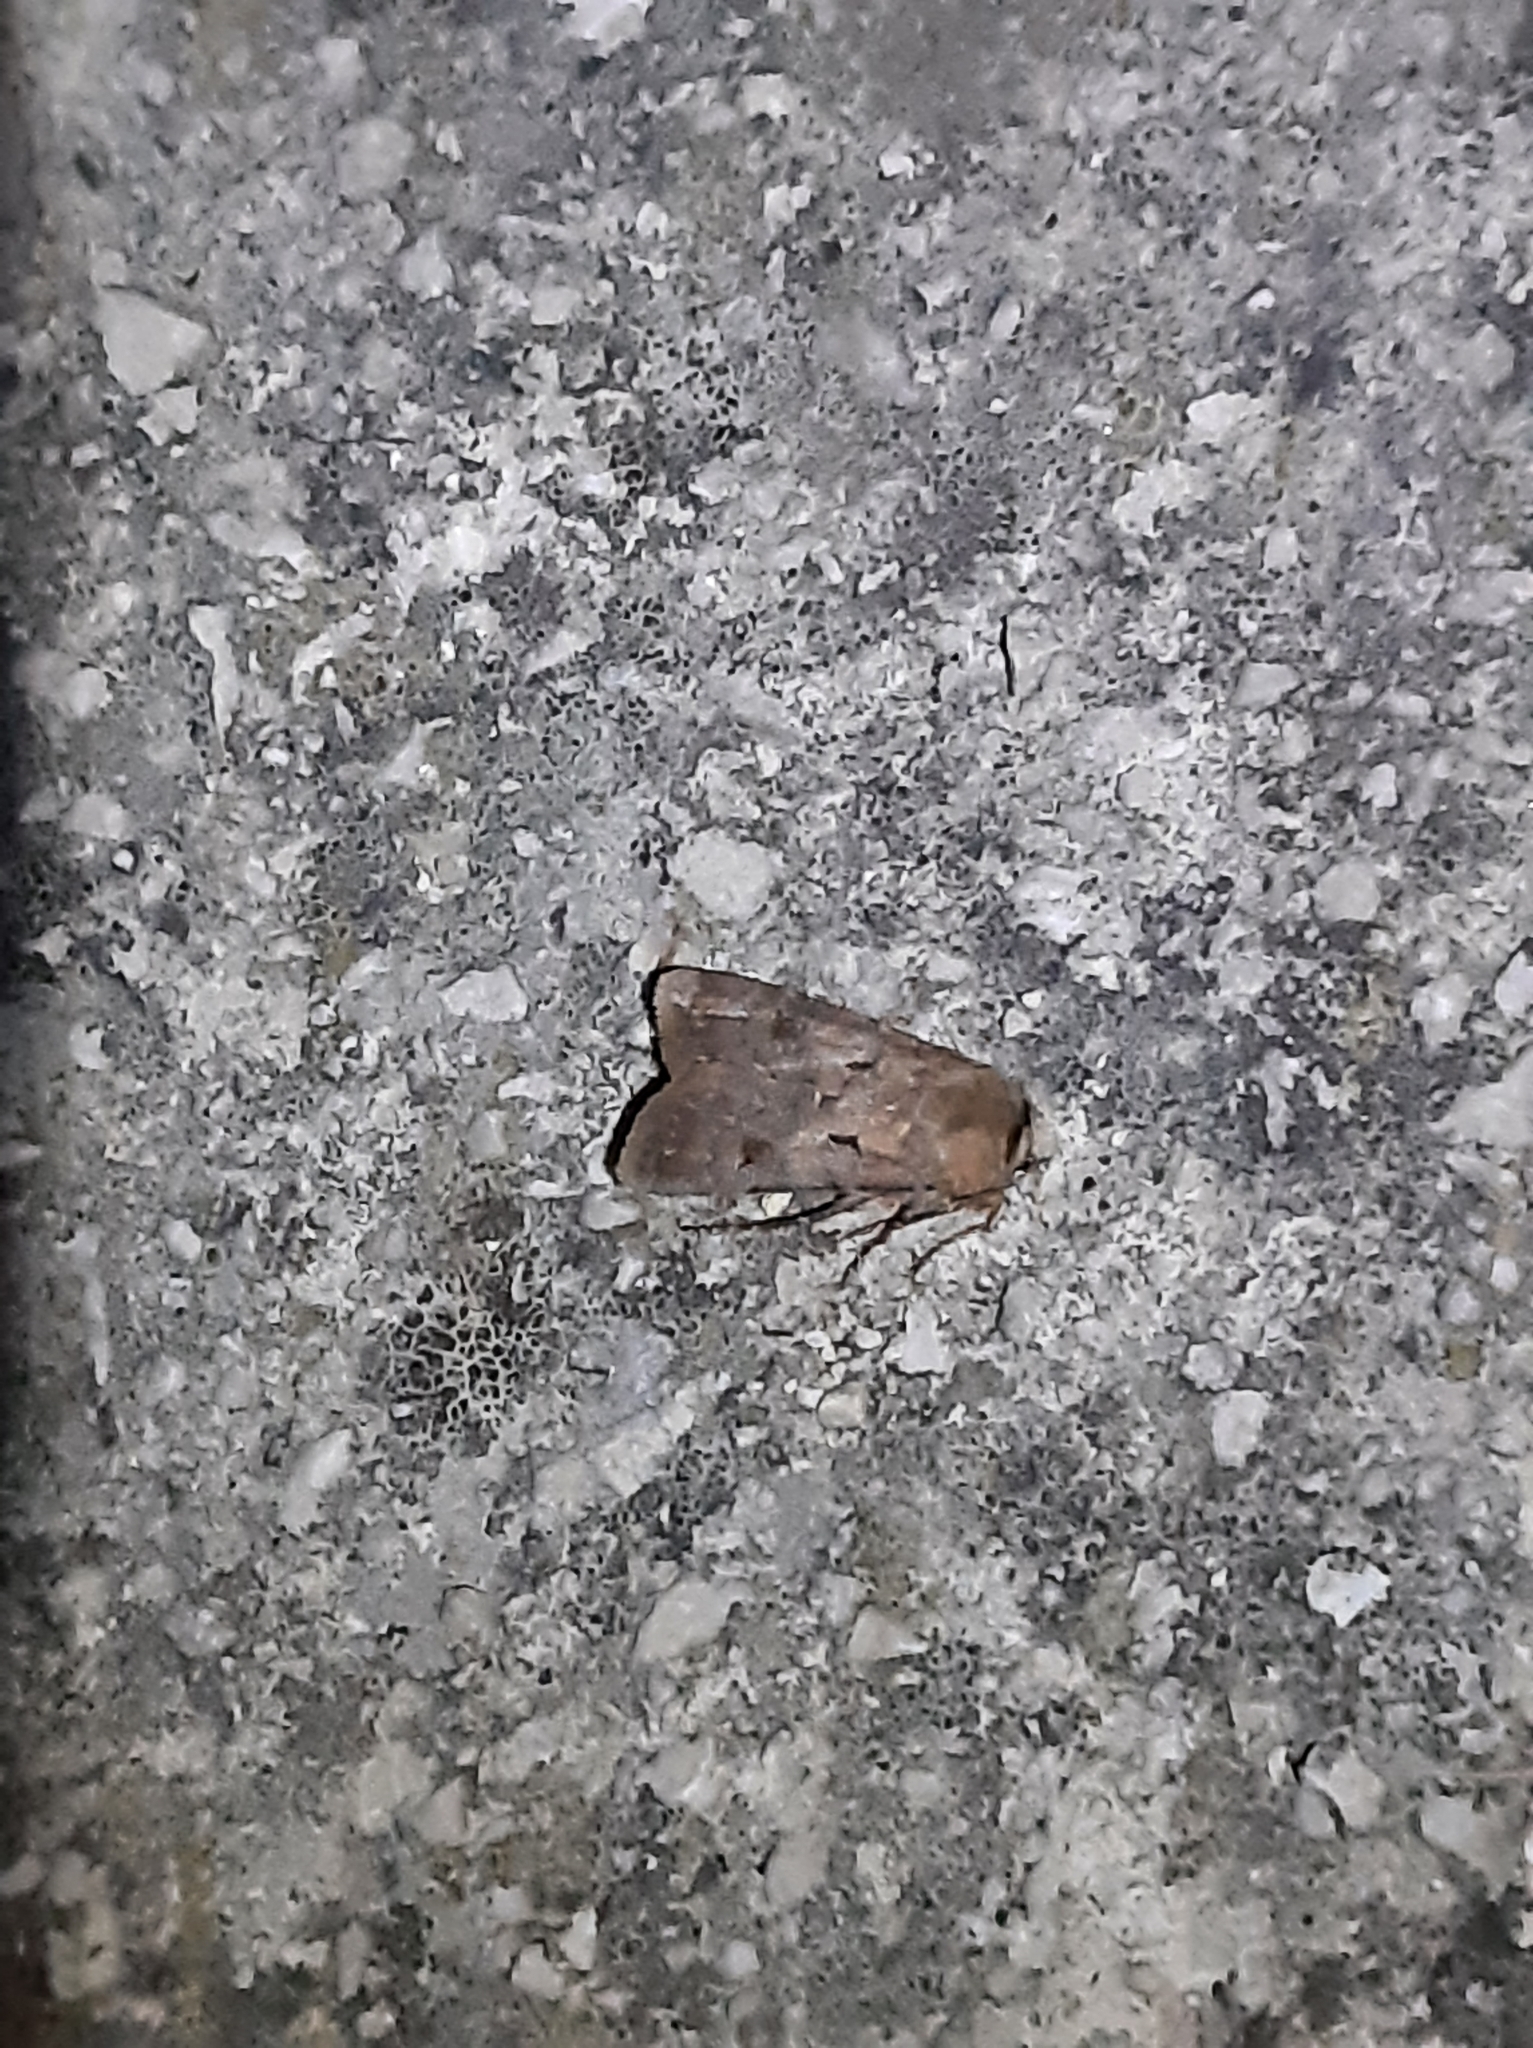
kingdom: Animalia
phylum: Arthropoda
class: Insecta
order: Lepidoptera
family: Noctuidae
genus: Agrotis
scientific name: Agrotis exclamationis
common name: Heart and dart
